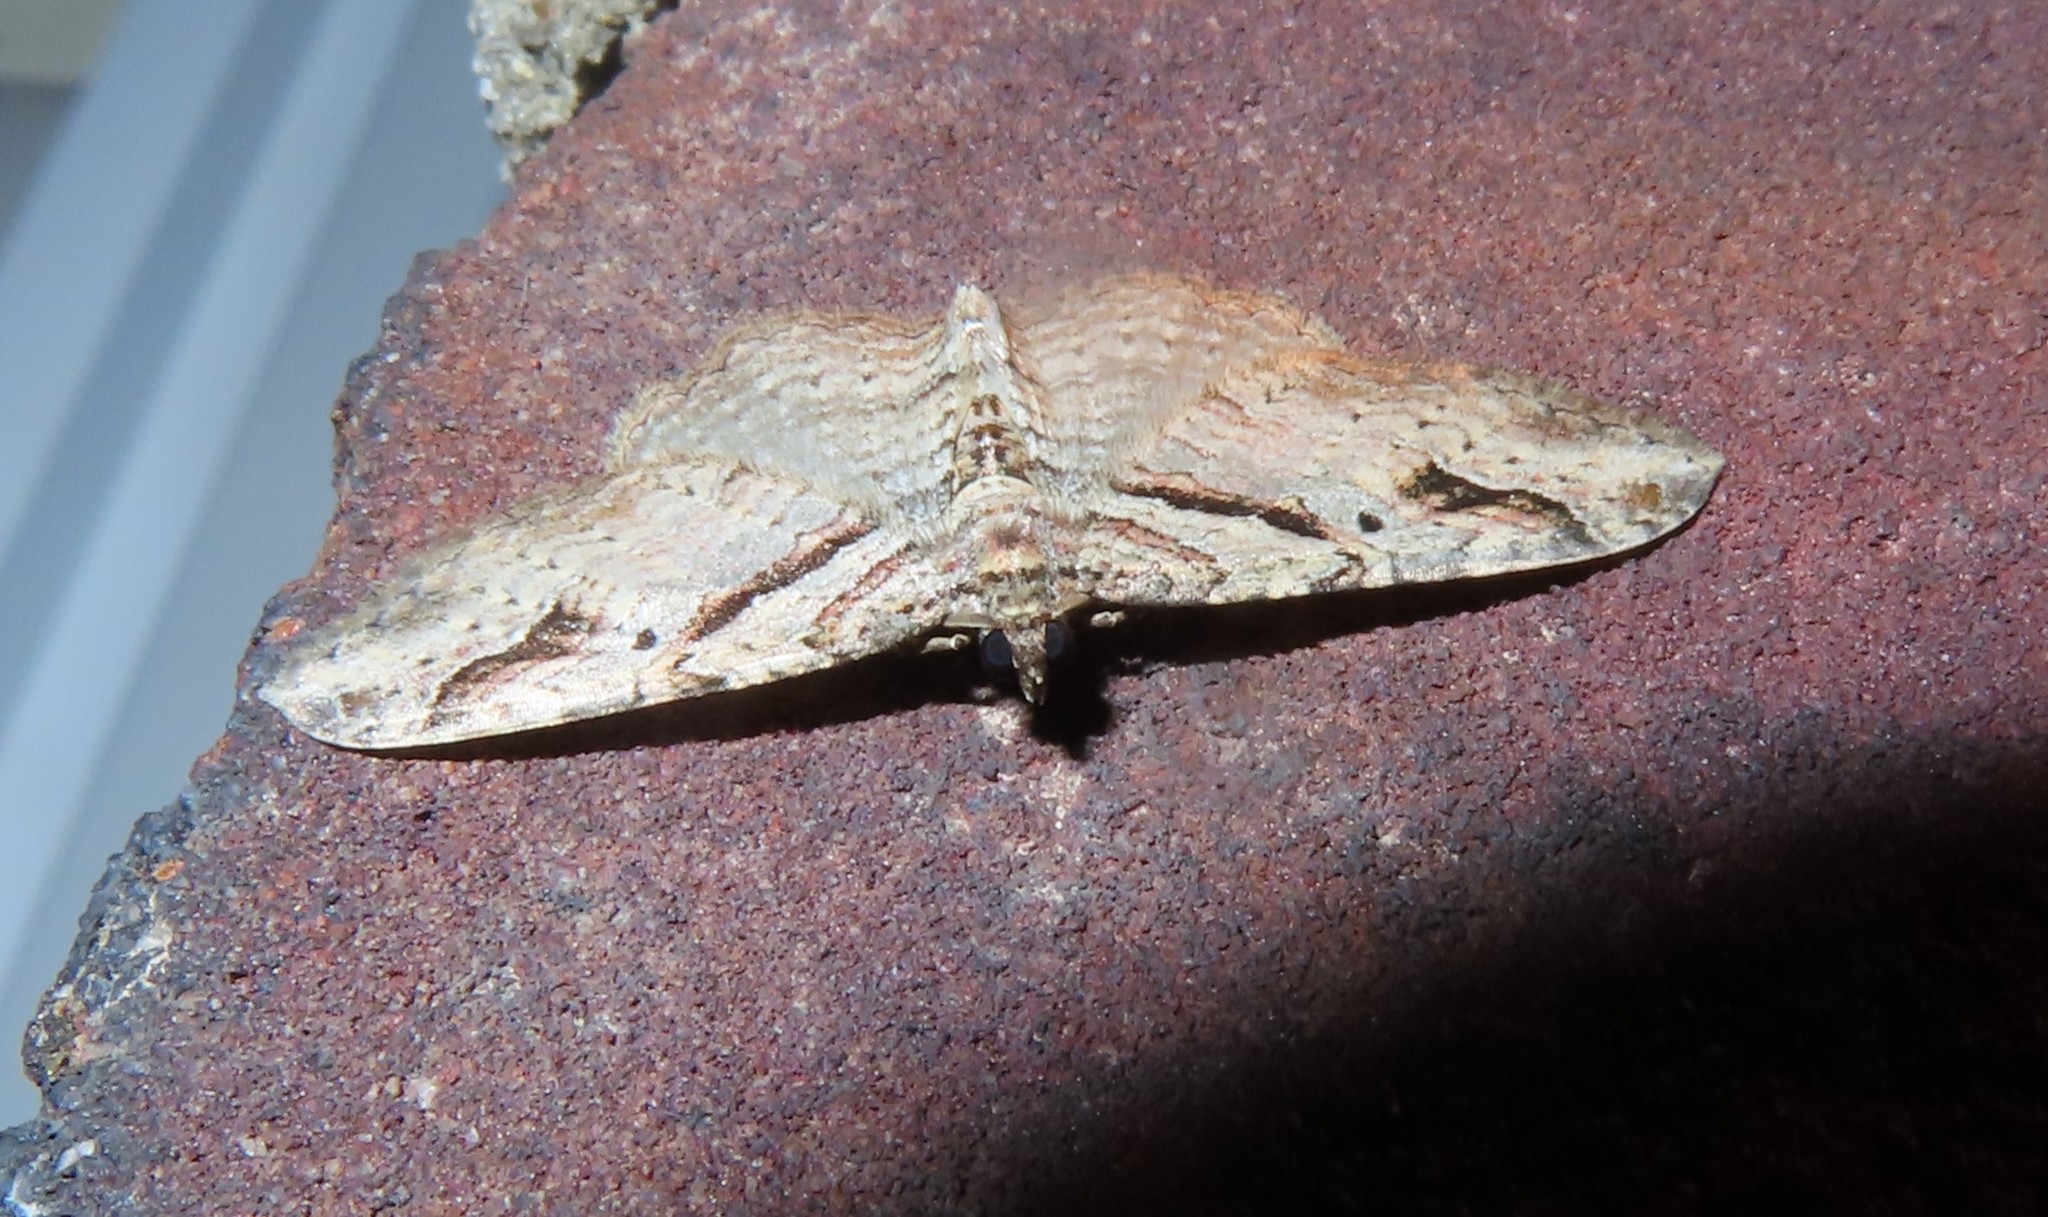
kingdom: Animalia
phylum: Arthropoda
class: Insecta
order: Lepidoptera
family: Geometridae
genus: Costaconvexa
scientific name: Costaconvexa centrostrigaria
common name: Bent-line carpet
